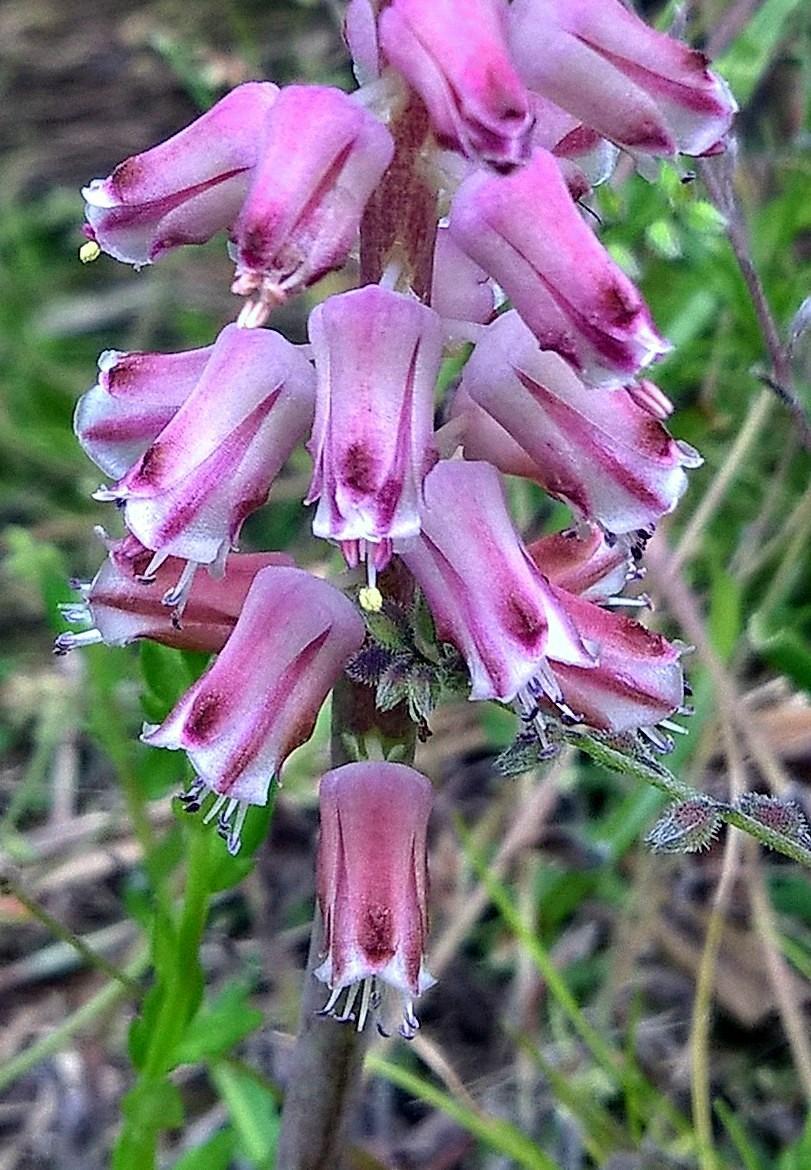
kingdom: Plantae
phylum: Tracheophyta
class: Liliopsida
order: Asparagales
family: Asparagaceae
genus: Lachenalia
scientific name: Lachenalia youngii
